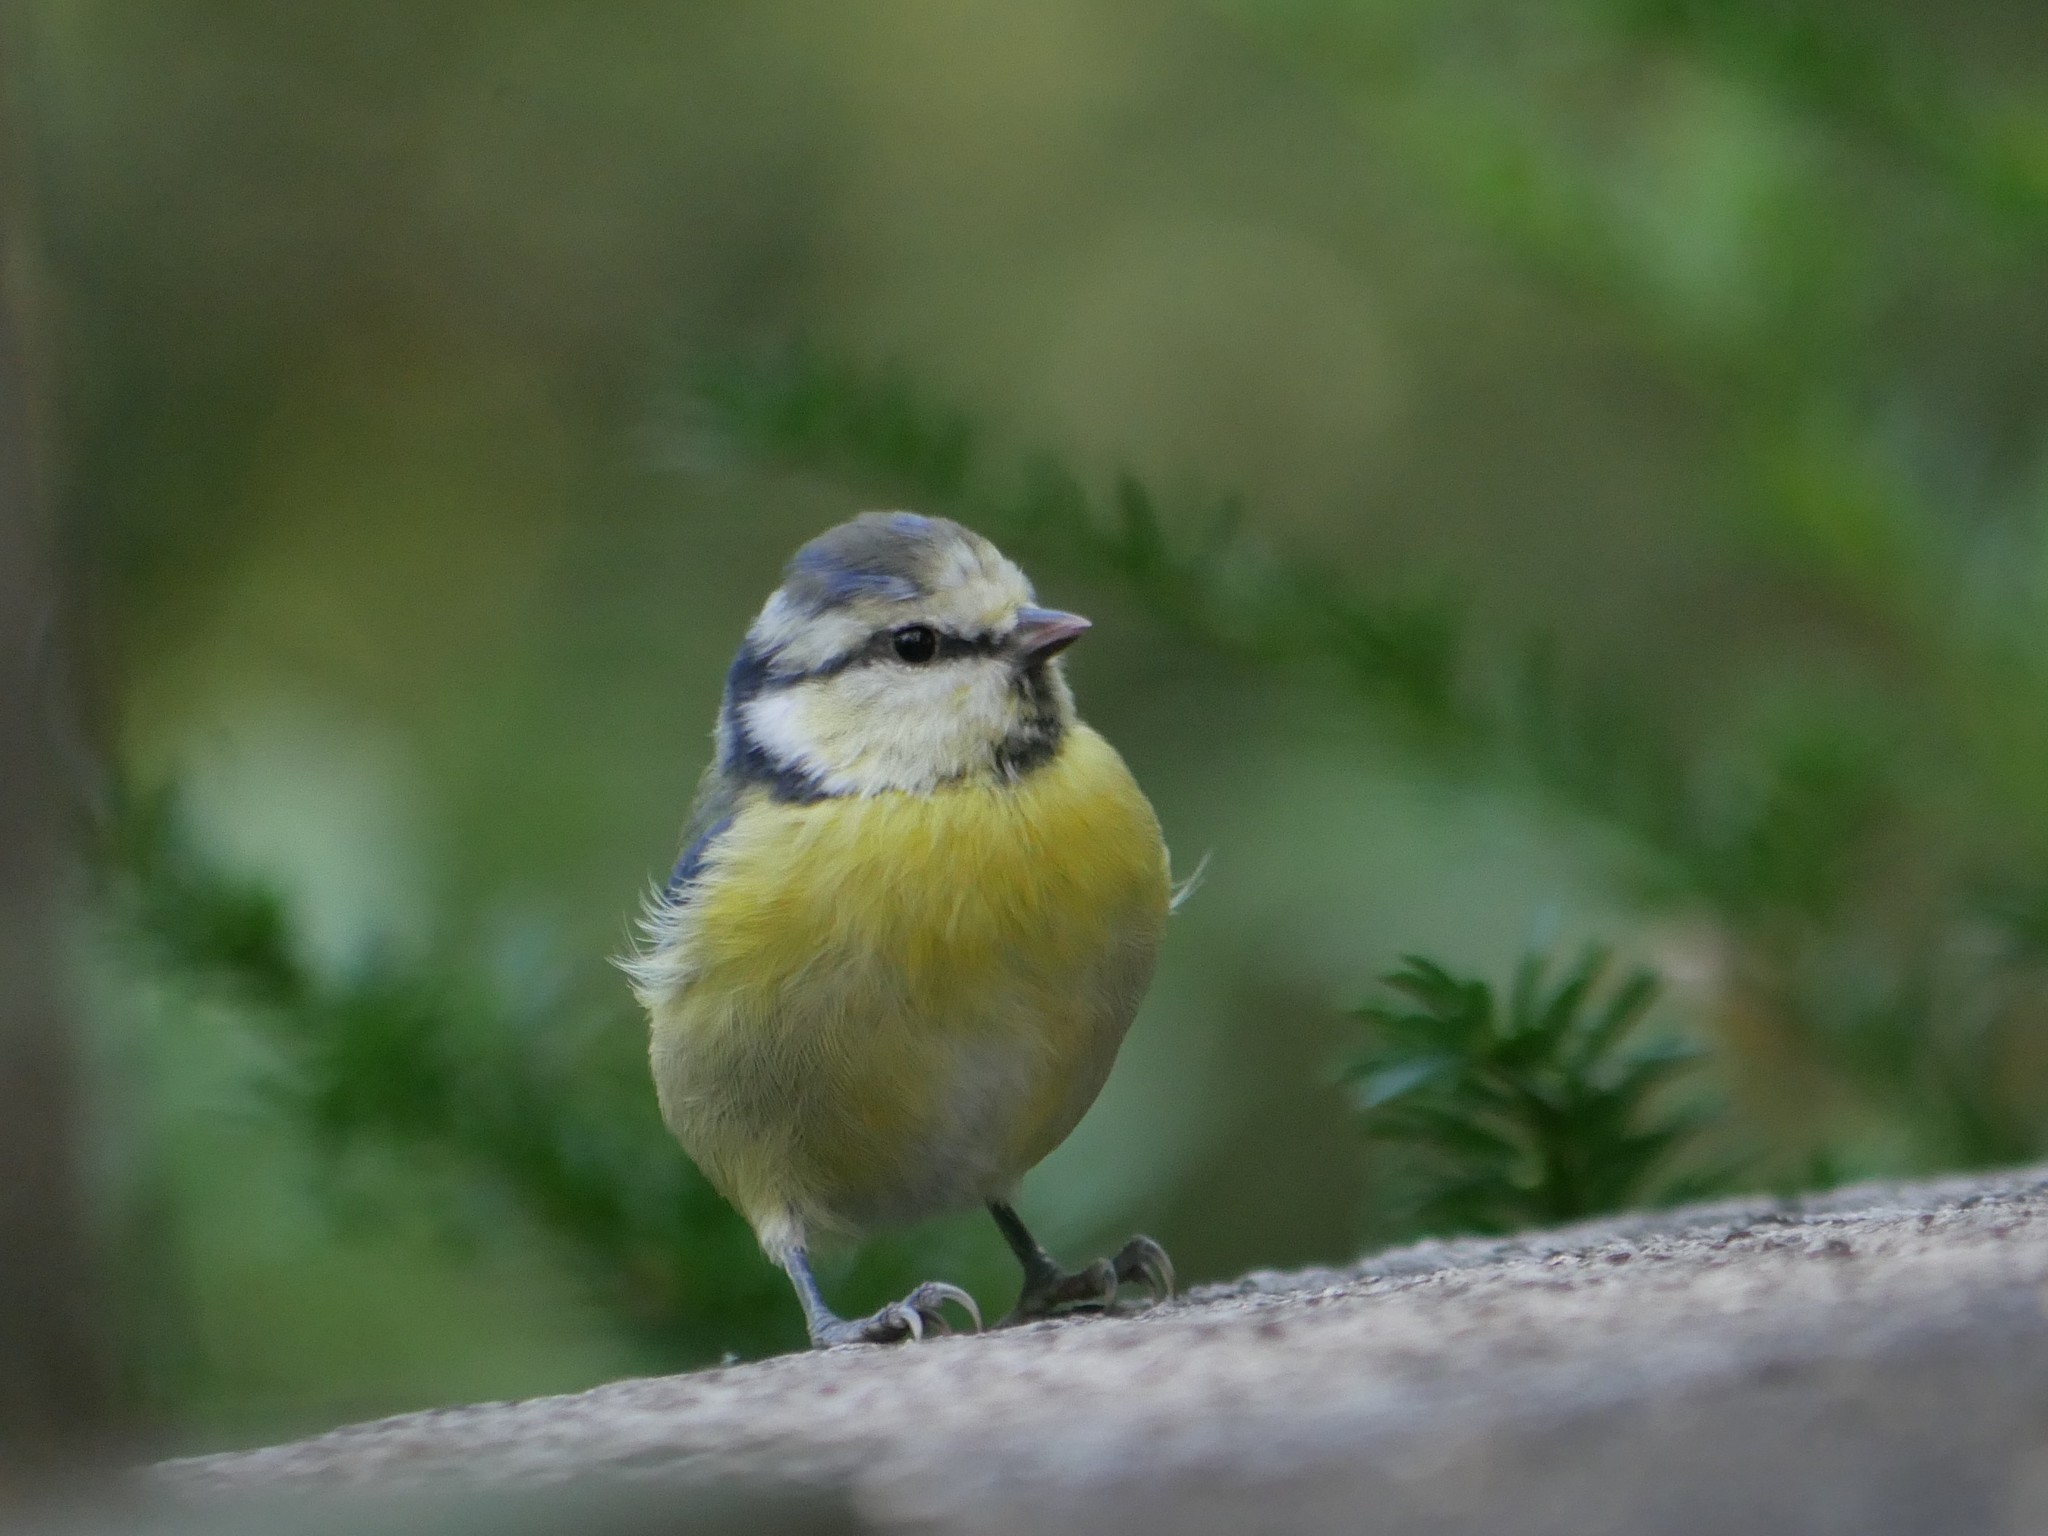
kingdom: Animalia
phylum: Chordata
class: Aves
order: Passeriformes
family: Paridae
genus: Cyanistes
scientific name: Cyanistes caeruleus
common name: Eurasian blue tit
